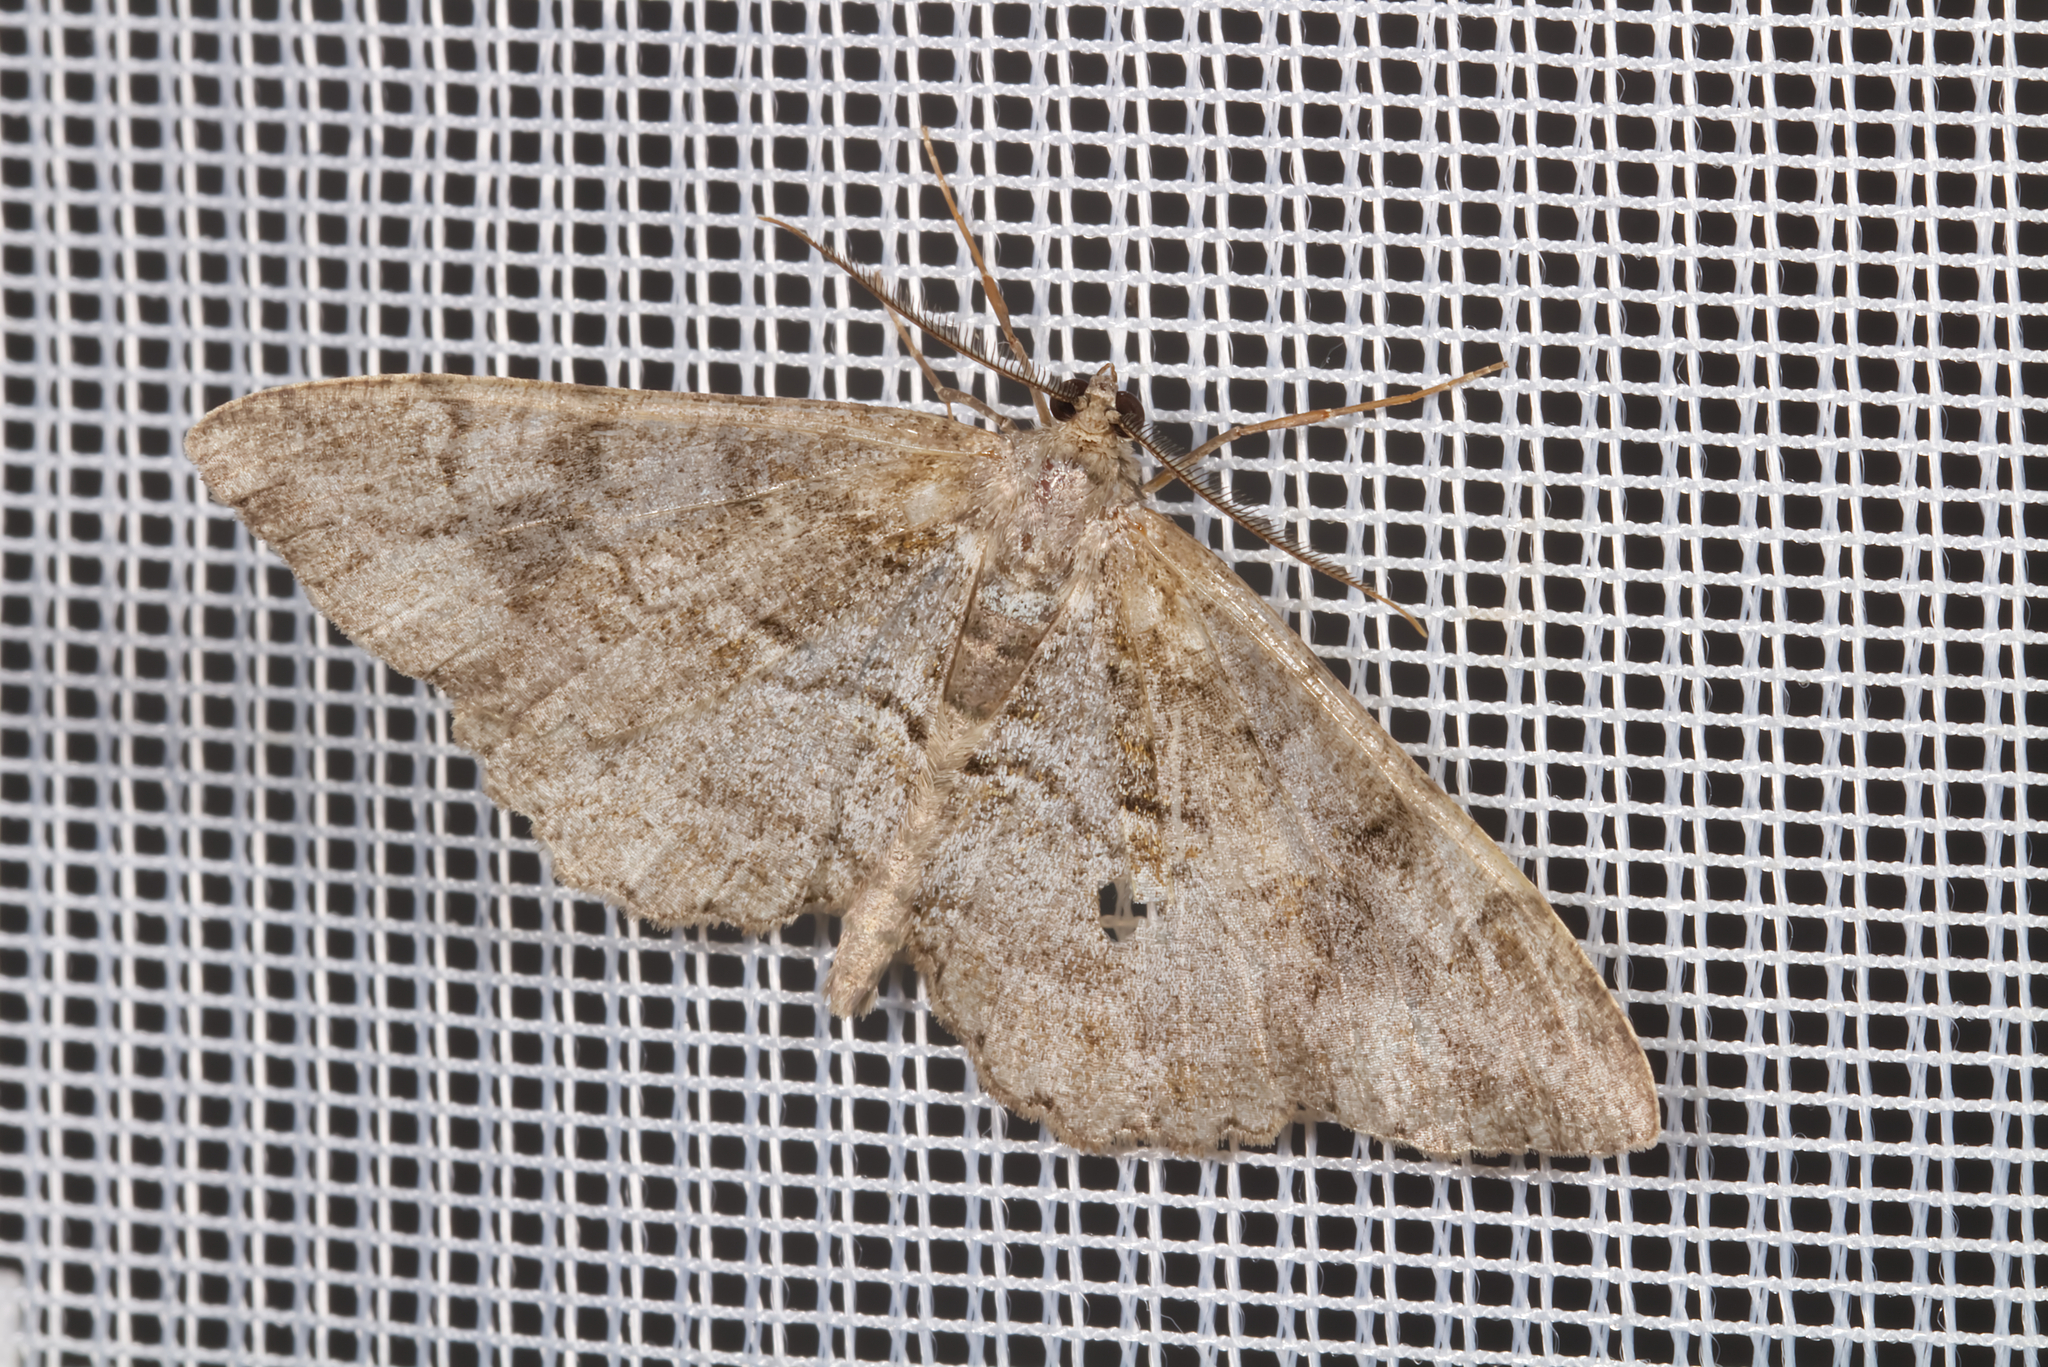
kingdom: Animalia
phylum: Arthropoda
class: Insecta
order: Lepidoptera
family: Geometridae
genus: Alcis
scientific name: Alcis repandata
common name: Mottled beauty
